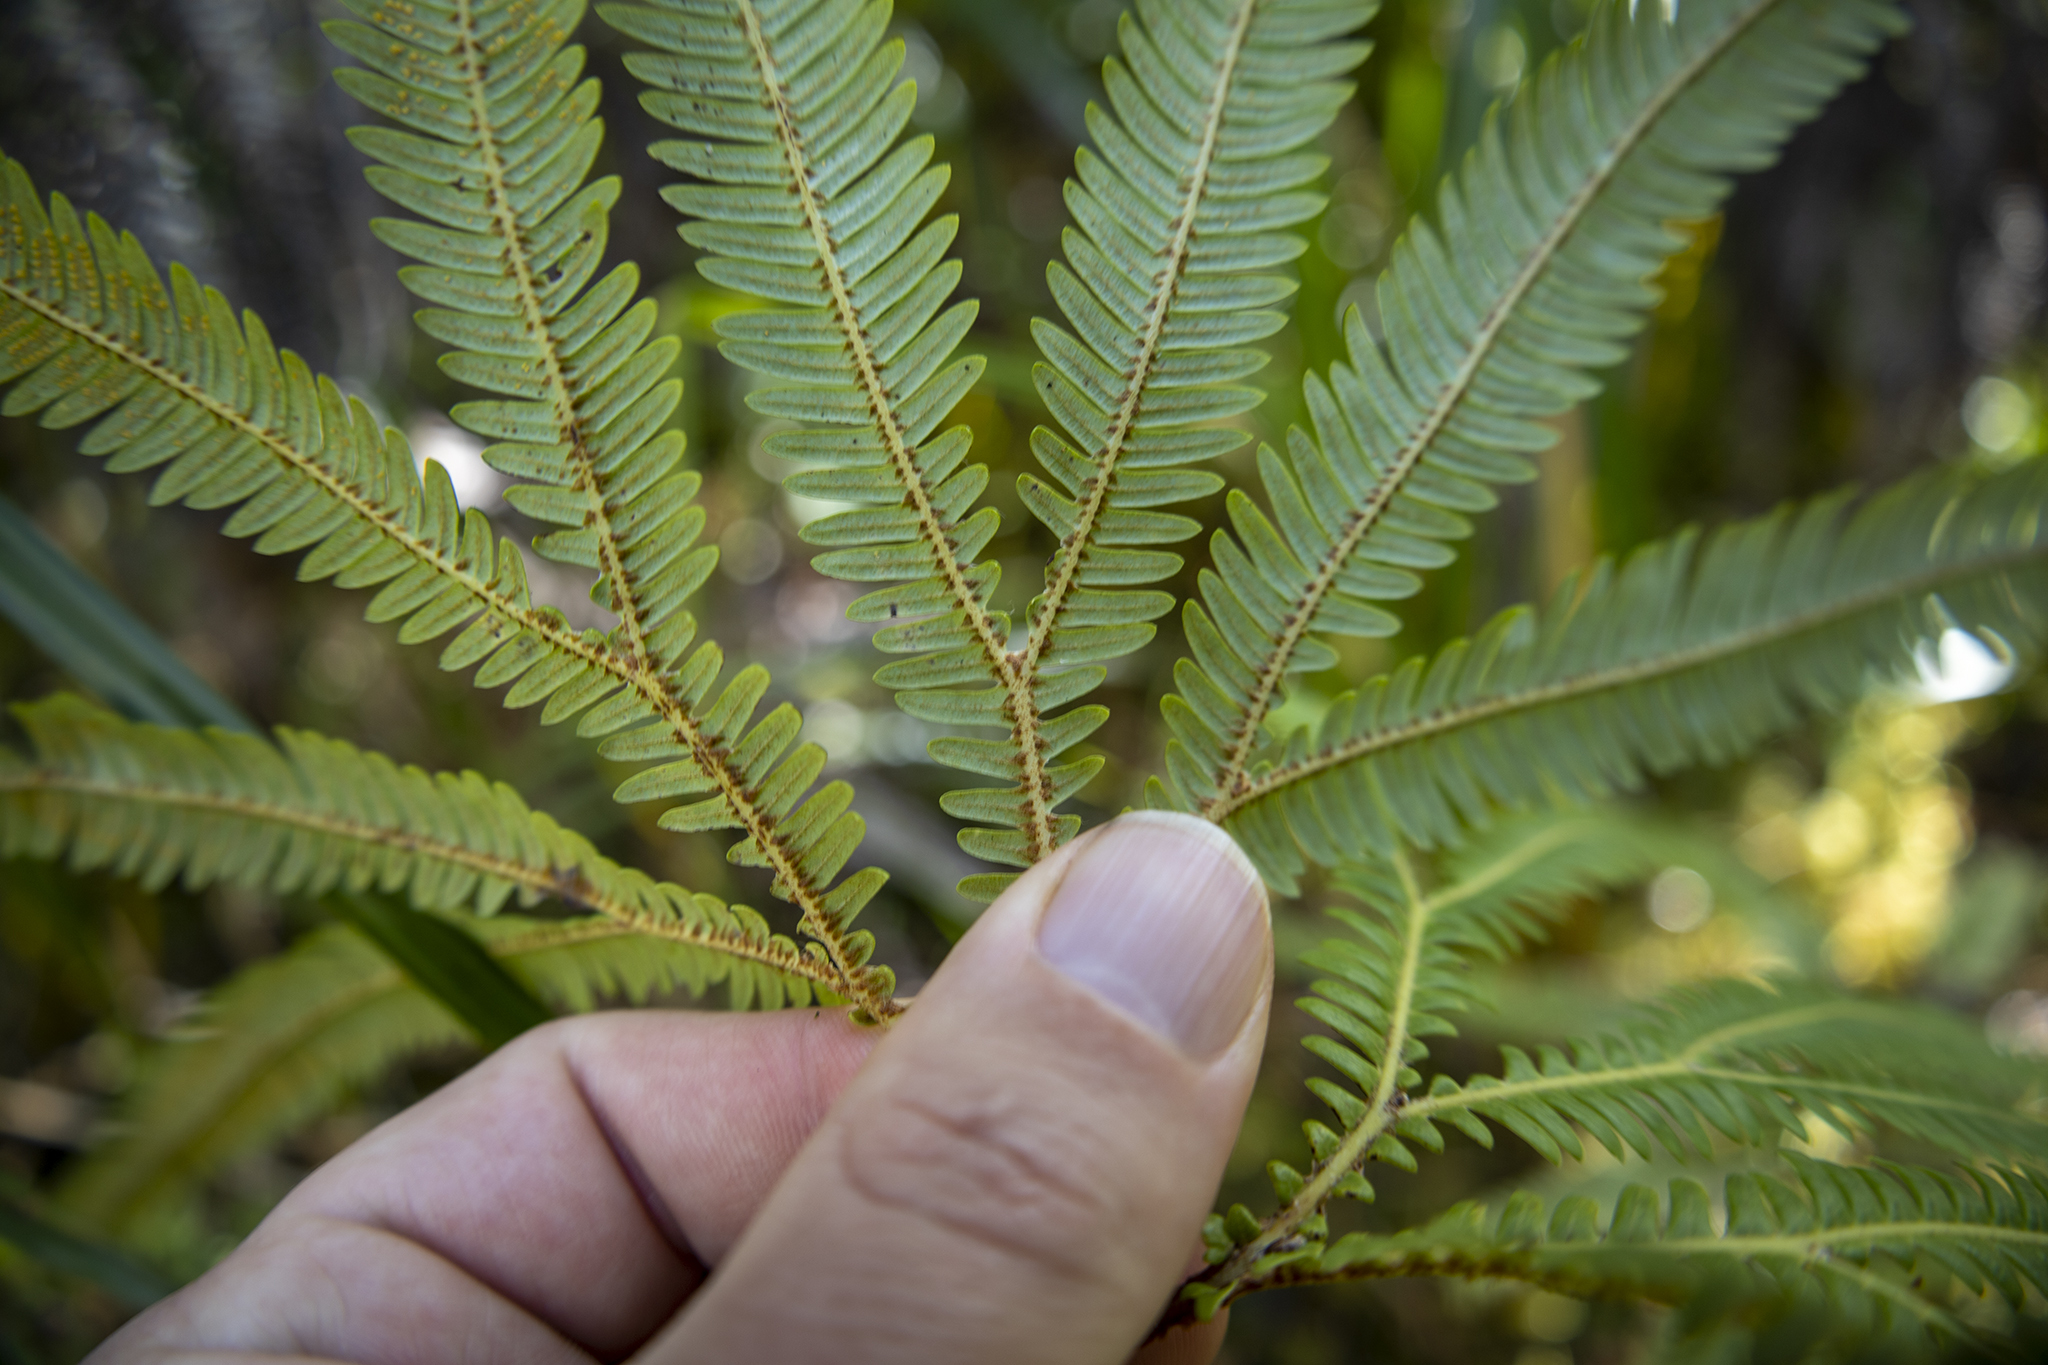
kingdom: Plantae
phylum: Tracheophyta
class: Polypodiopsida
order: Gleicheniales
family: Gleicheniaceae
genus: Sticherus
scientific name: Sticherus cunninghamii
